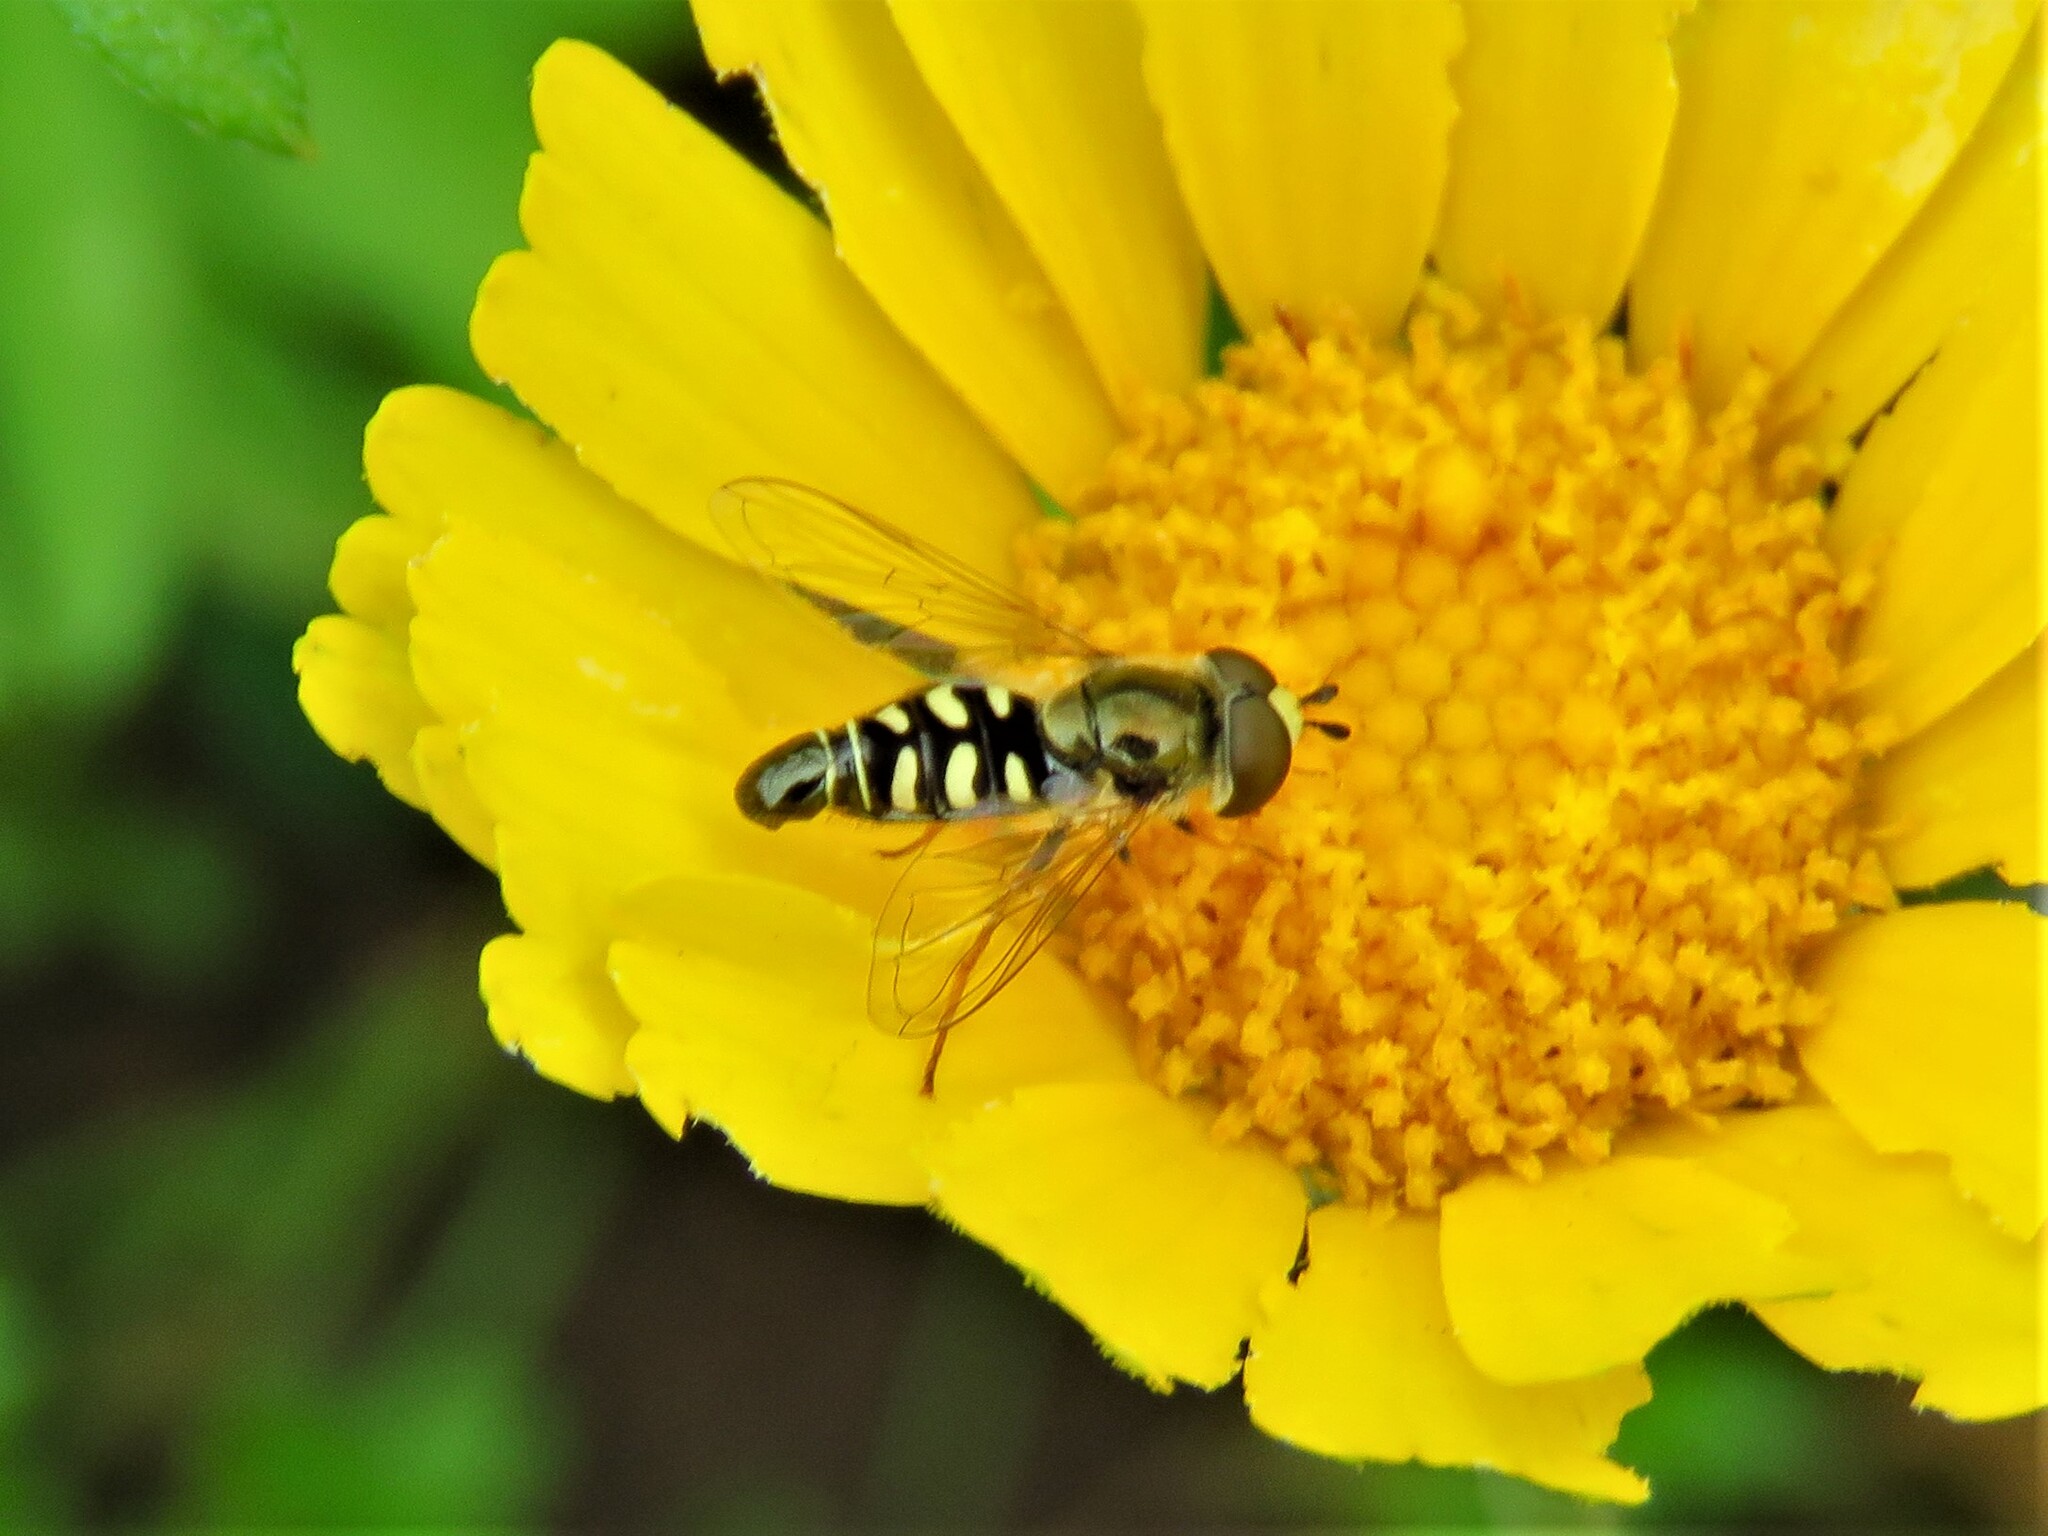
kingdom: Animalia
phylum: Arthropoda
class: Insecta
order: Diptera
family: Syrphidae
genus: Eupeodes
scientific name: Eupeodes volucris
